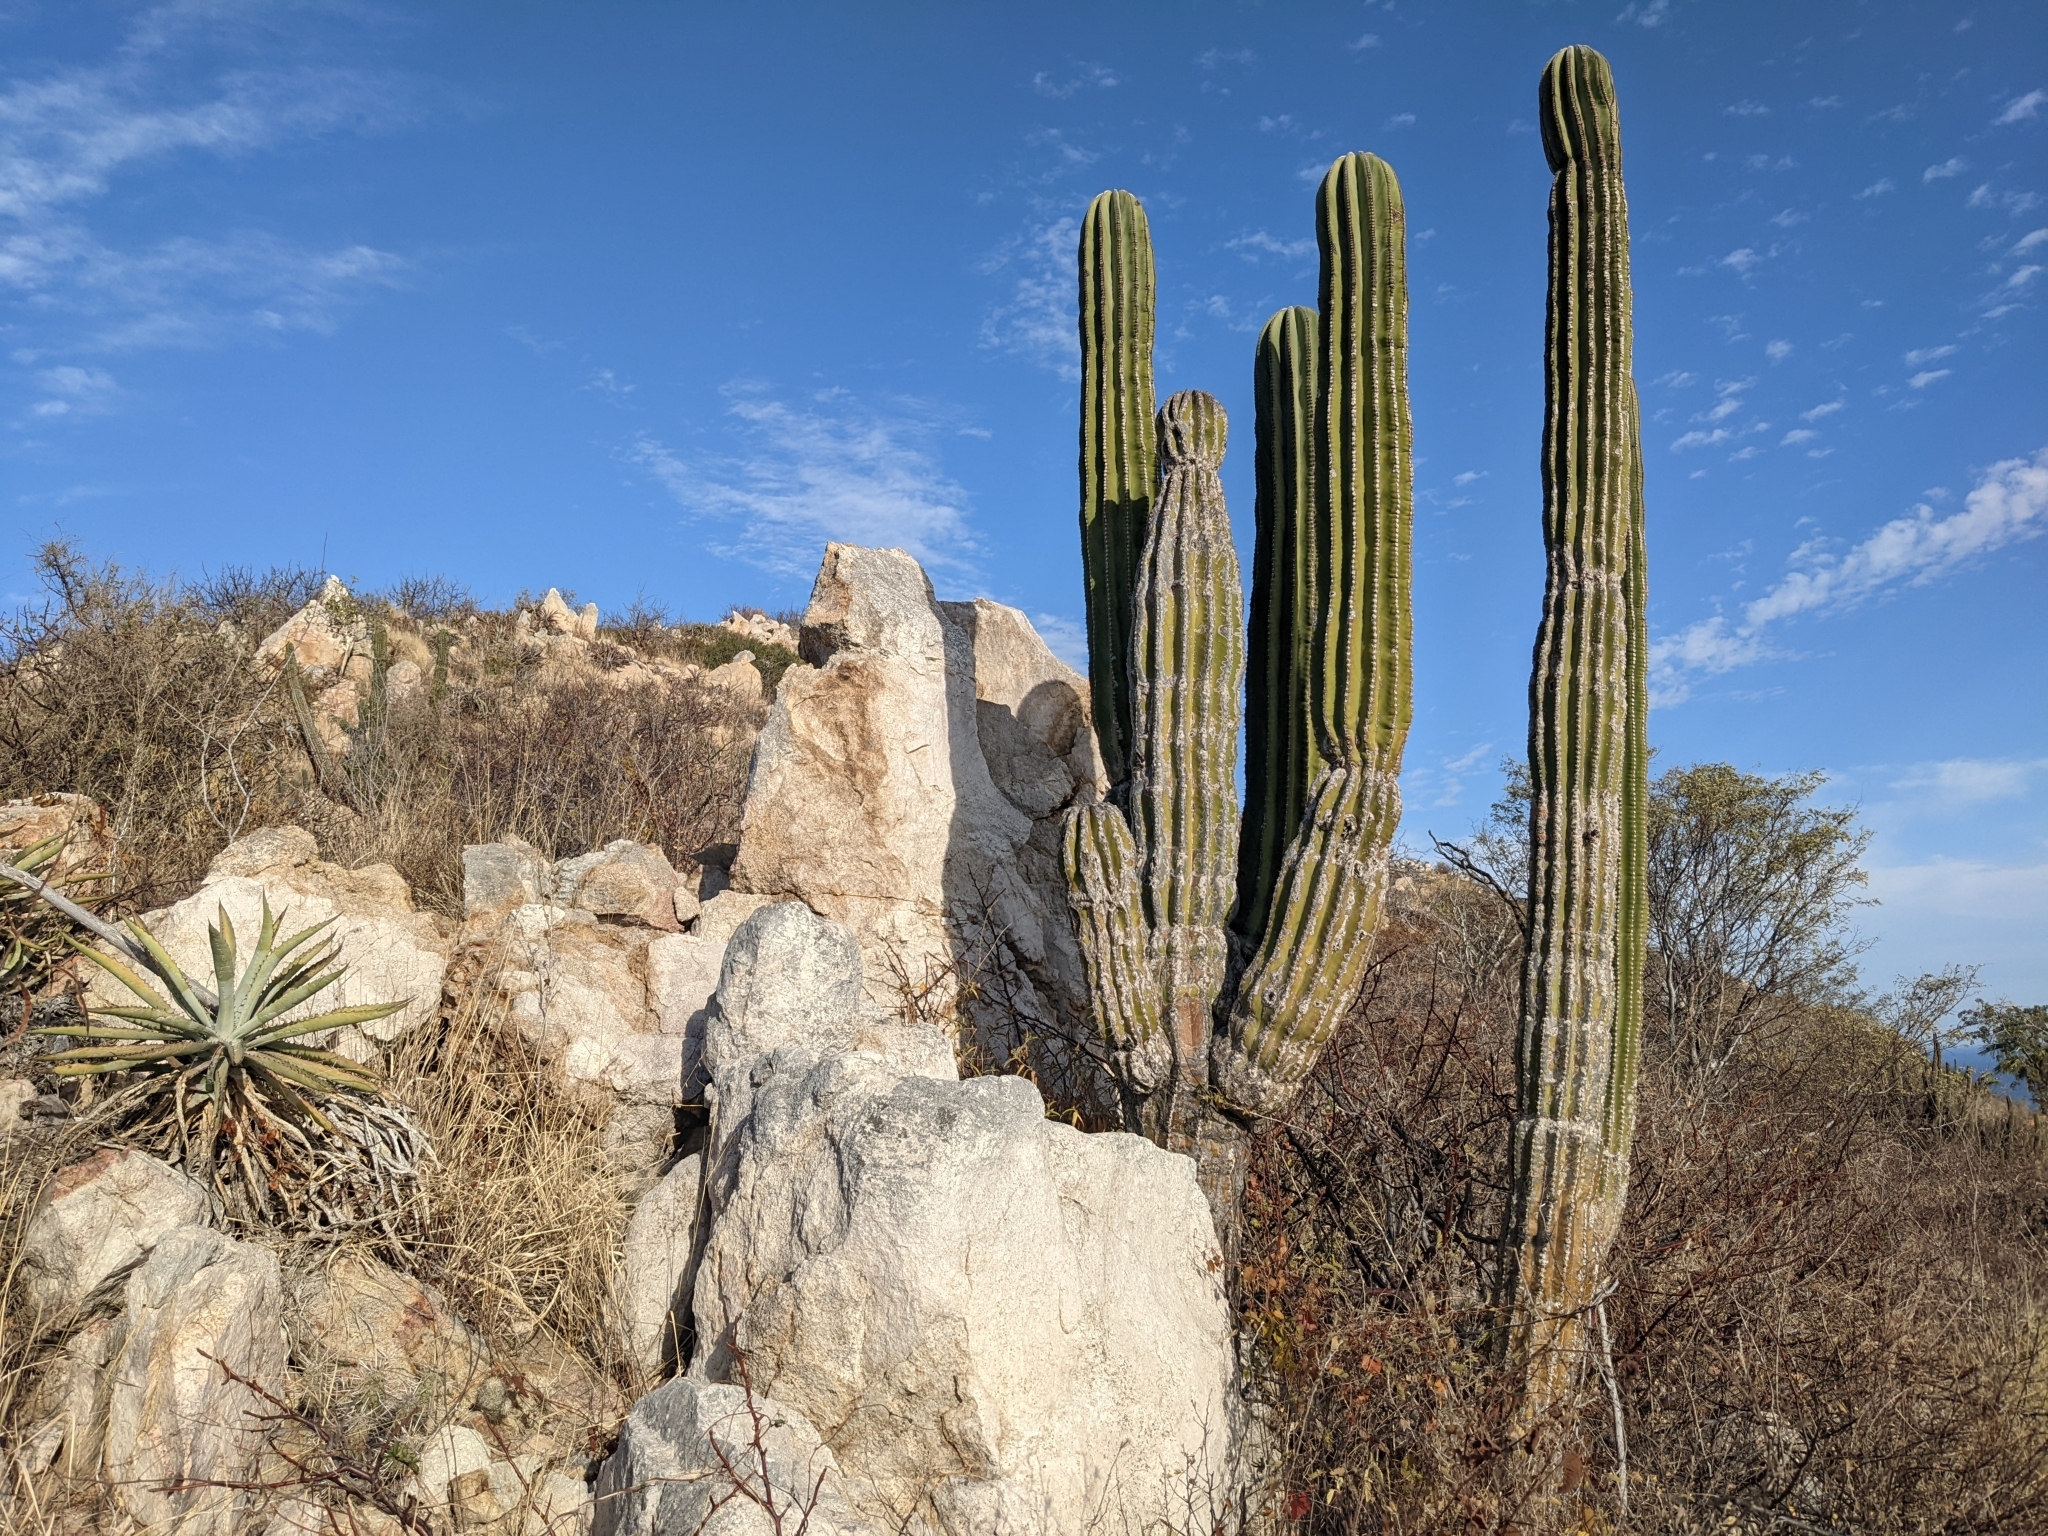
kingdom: Plantae
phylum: Tracheophyta
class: Magnoliopsida
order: Caryophyllales
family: Cactaceae
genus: Pachycereus
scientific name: Pachycereus pringlei
